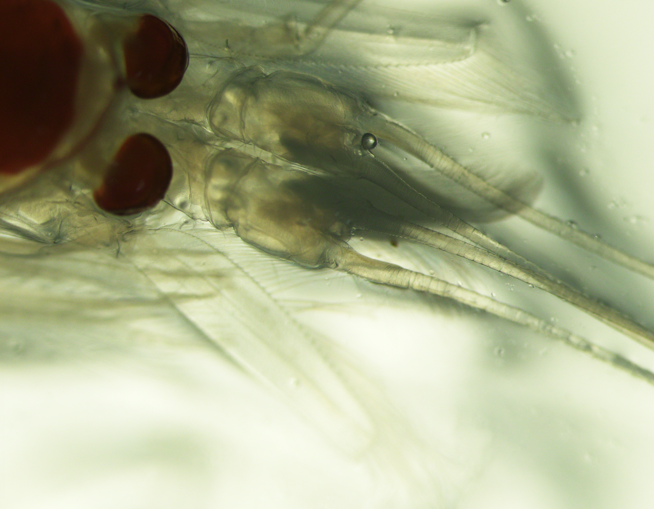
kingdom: Animalia
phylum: Arthropoda
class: Malacostraca
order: Mysida
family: Mysidae
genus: Boreomysis
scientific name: Boreomysis arctica
